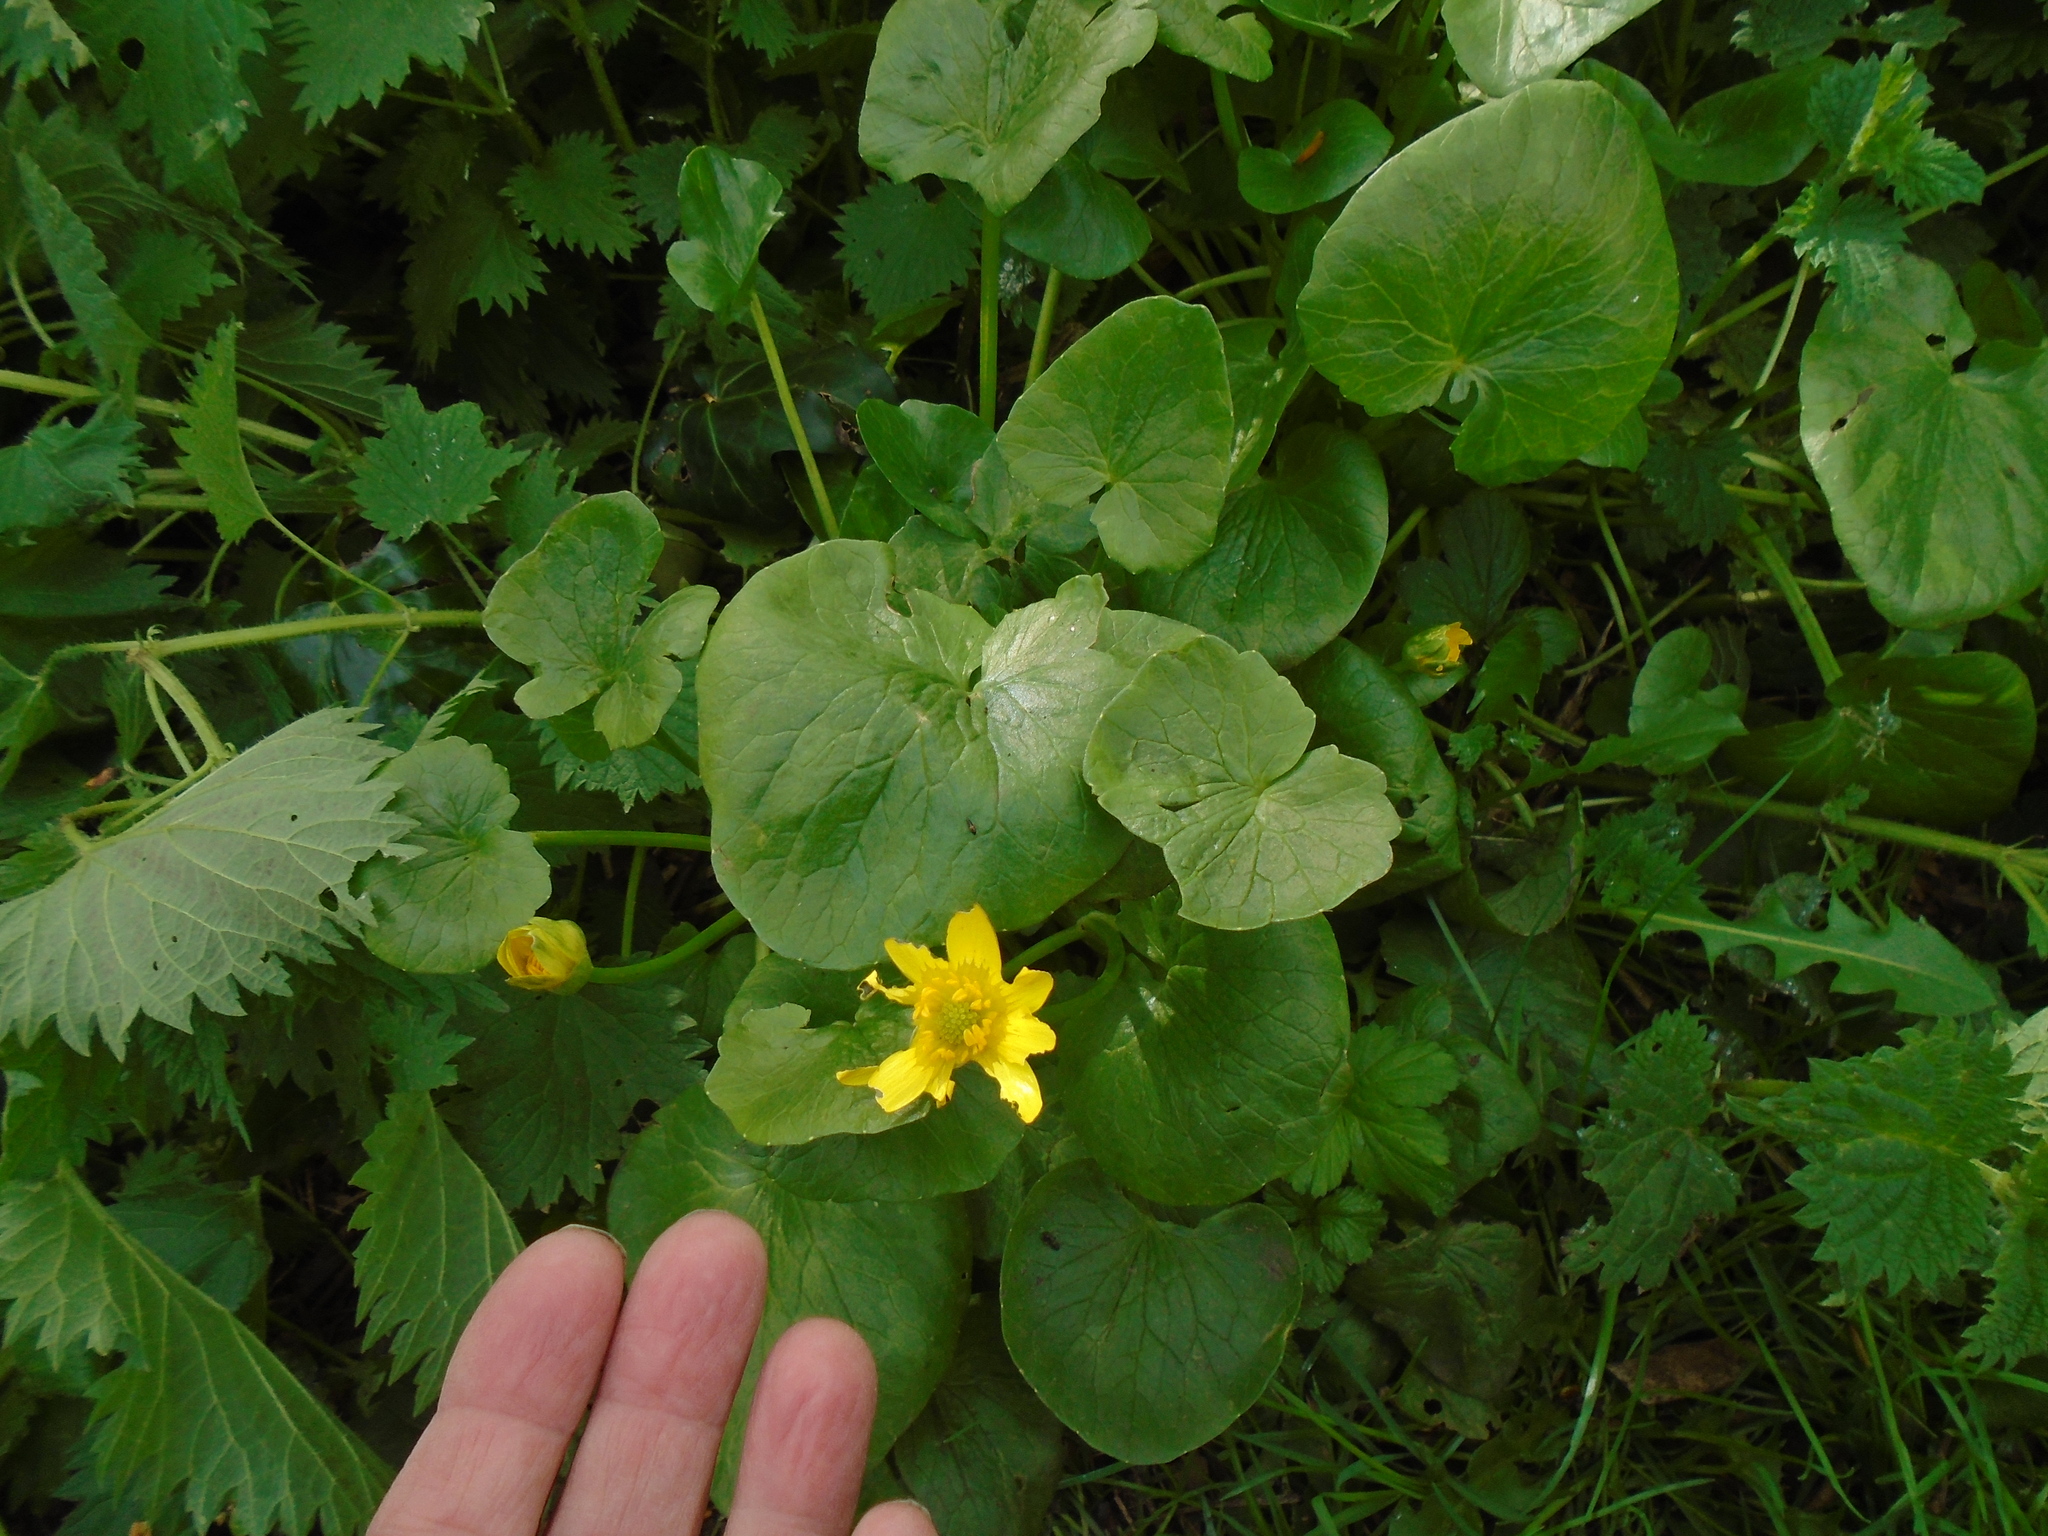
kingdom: Plantae
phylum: Tracheophyta
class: Magnoliopsida
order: Ranunculales
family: Ranunculaceae
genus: Ficaria
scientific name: Ficaria verna
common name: Lesser celandine
